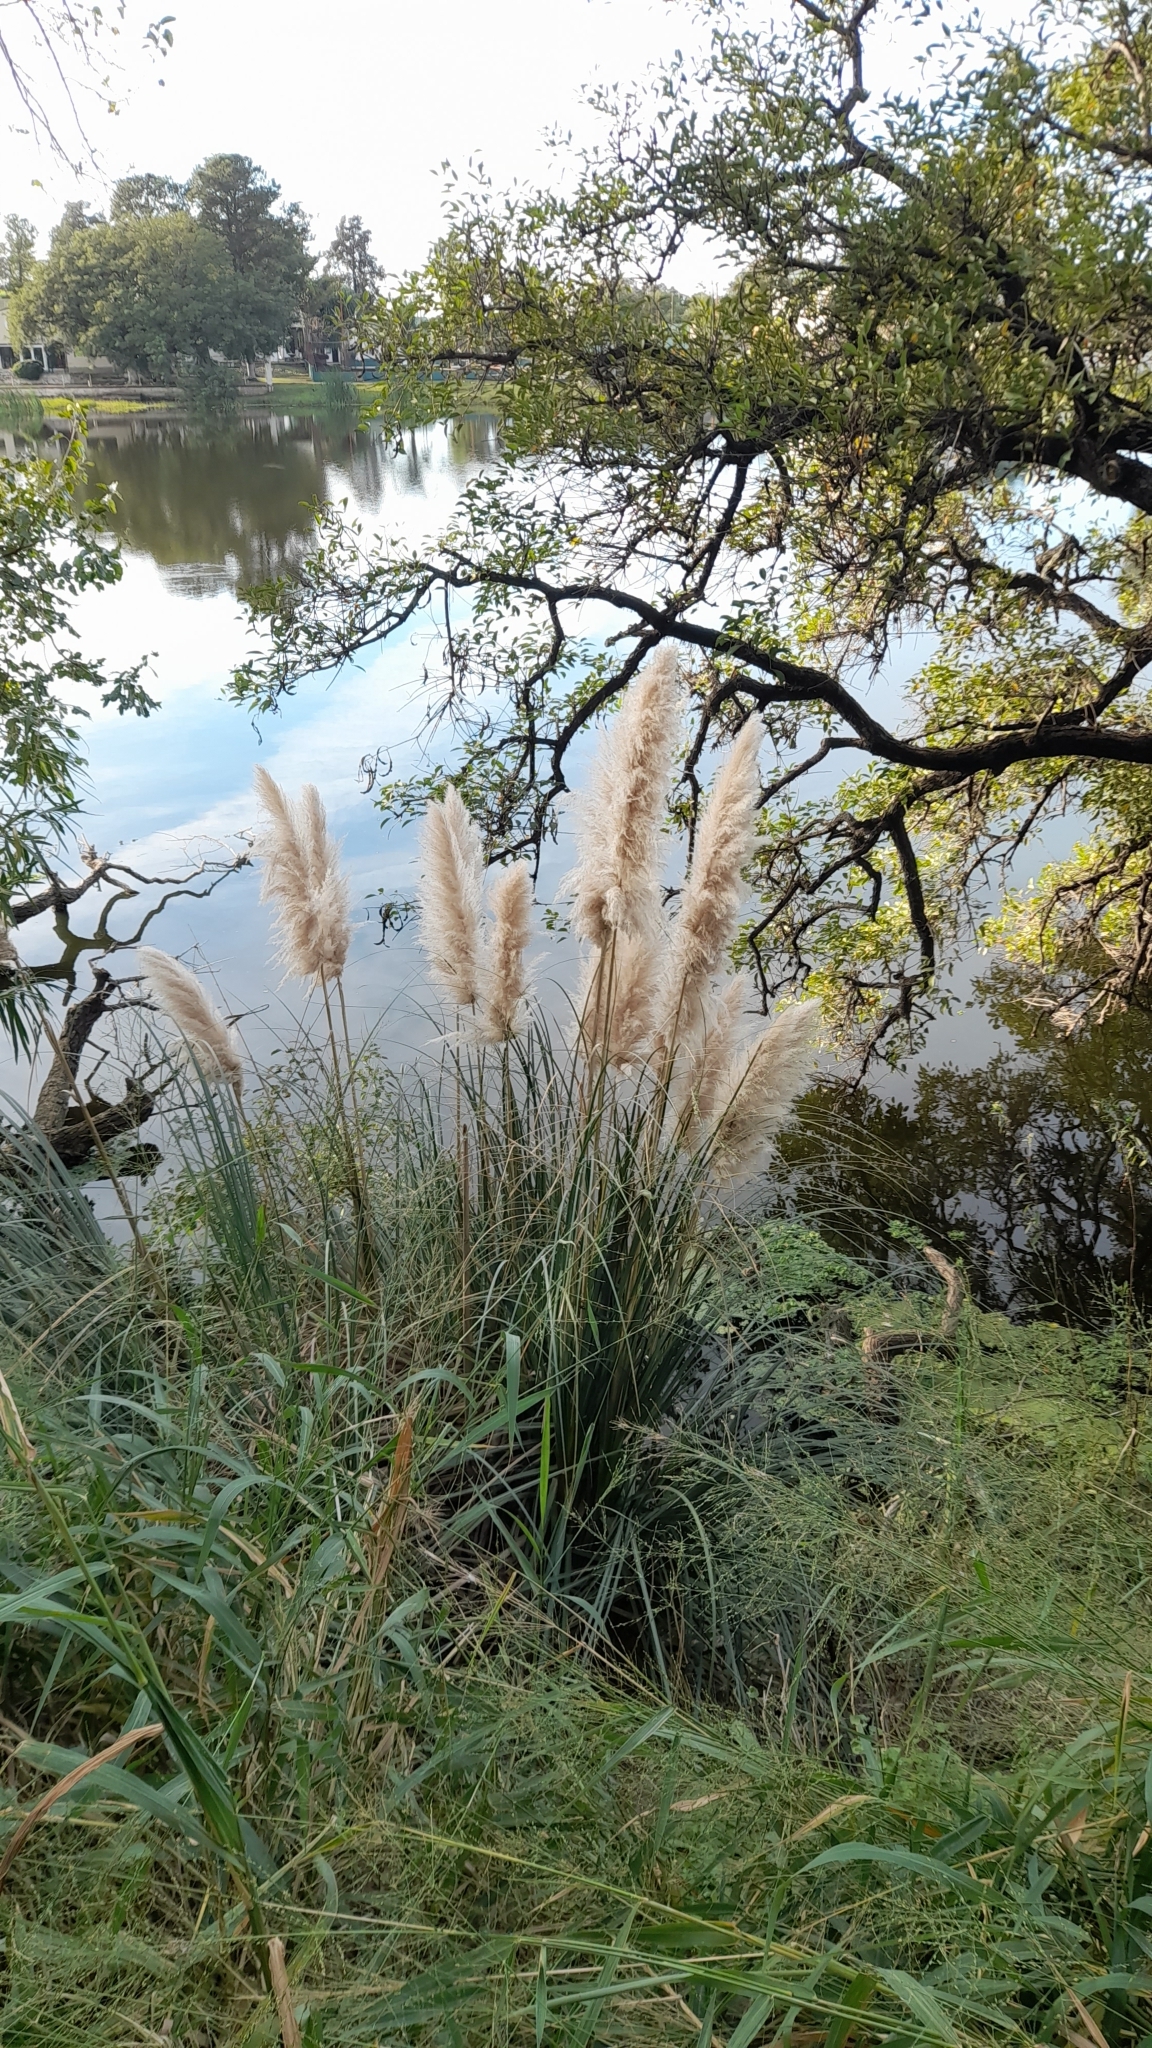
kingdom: Plantae
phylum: Tracheophyta
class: Liliopsida
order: Poales
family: Poaceae
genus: Cortaderia
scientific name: Cortaderia selloana
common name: Uruguayan pampas grass
